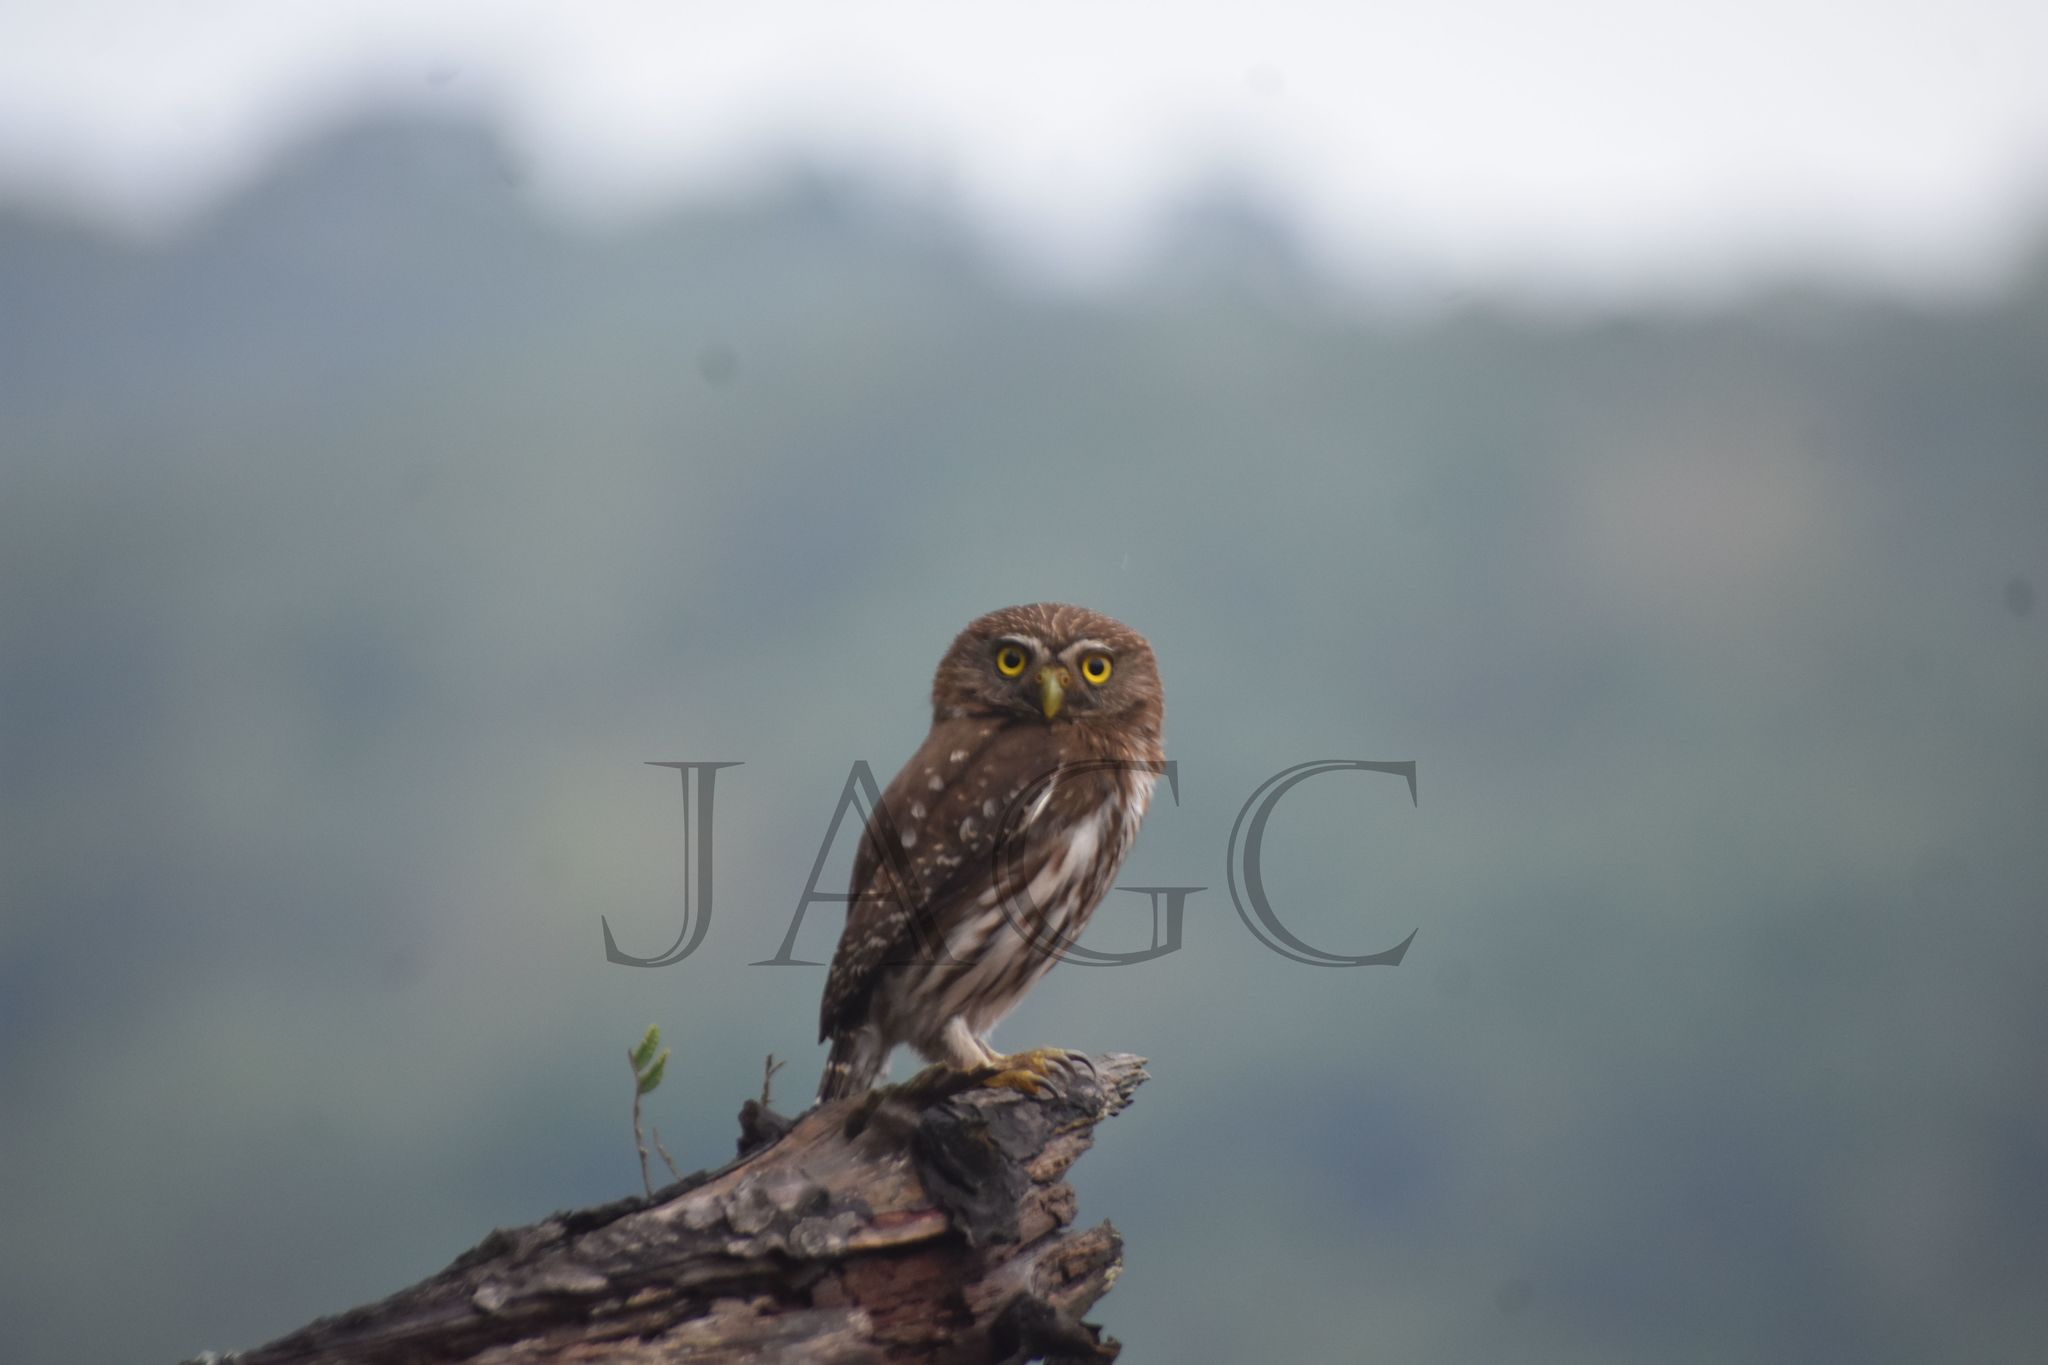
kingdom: Animalia
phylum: Chordata
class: Aves
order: Strigiformes
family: Strigidae
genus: Glaucidium
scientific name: Glaucidium brasilianum
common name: Ferruginous pygmy-owl
